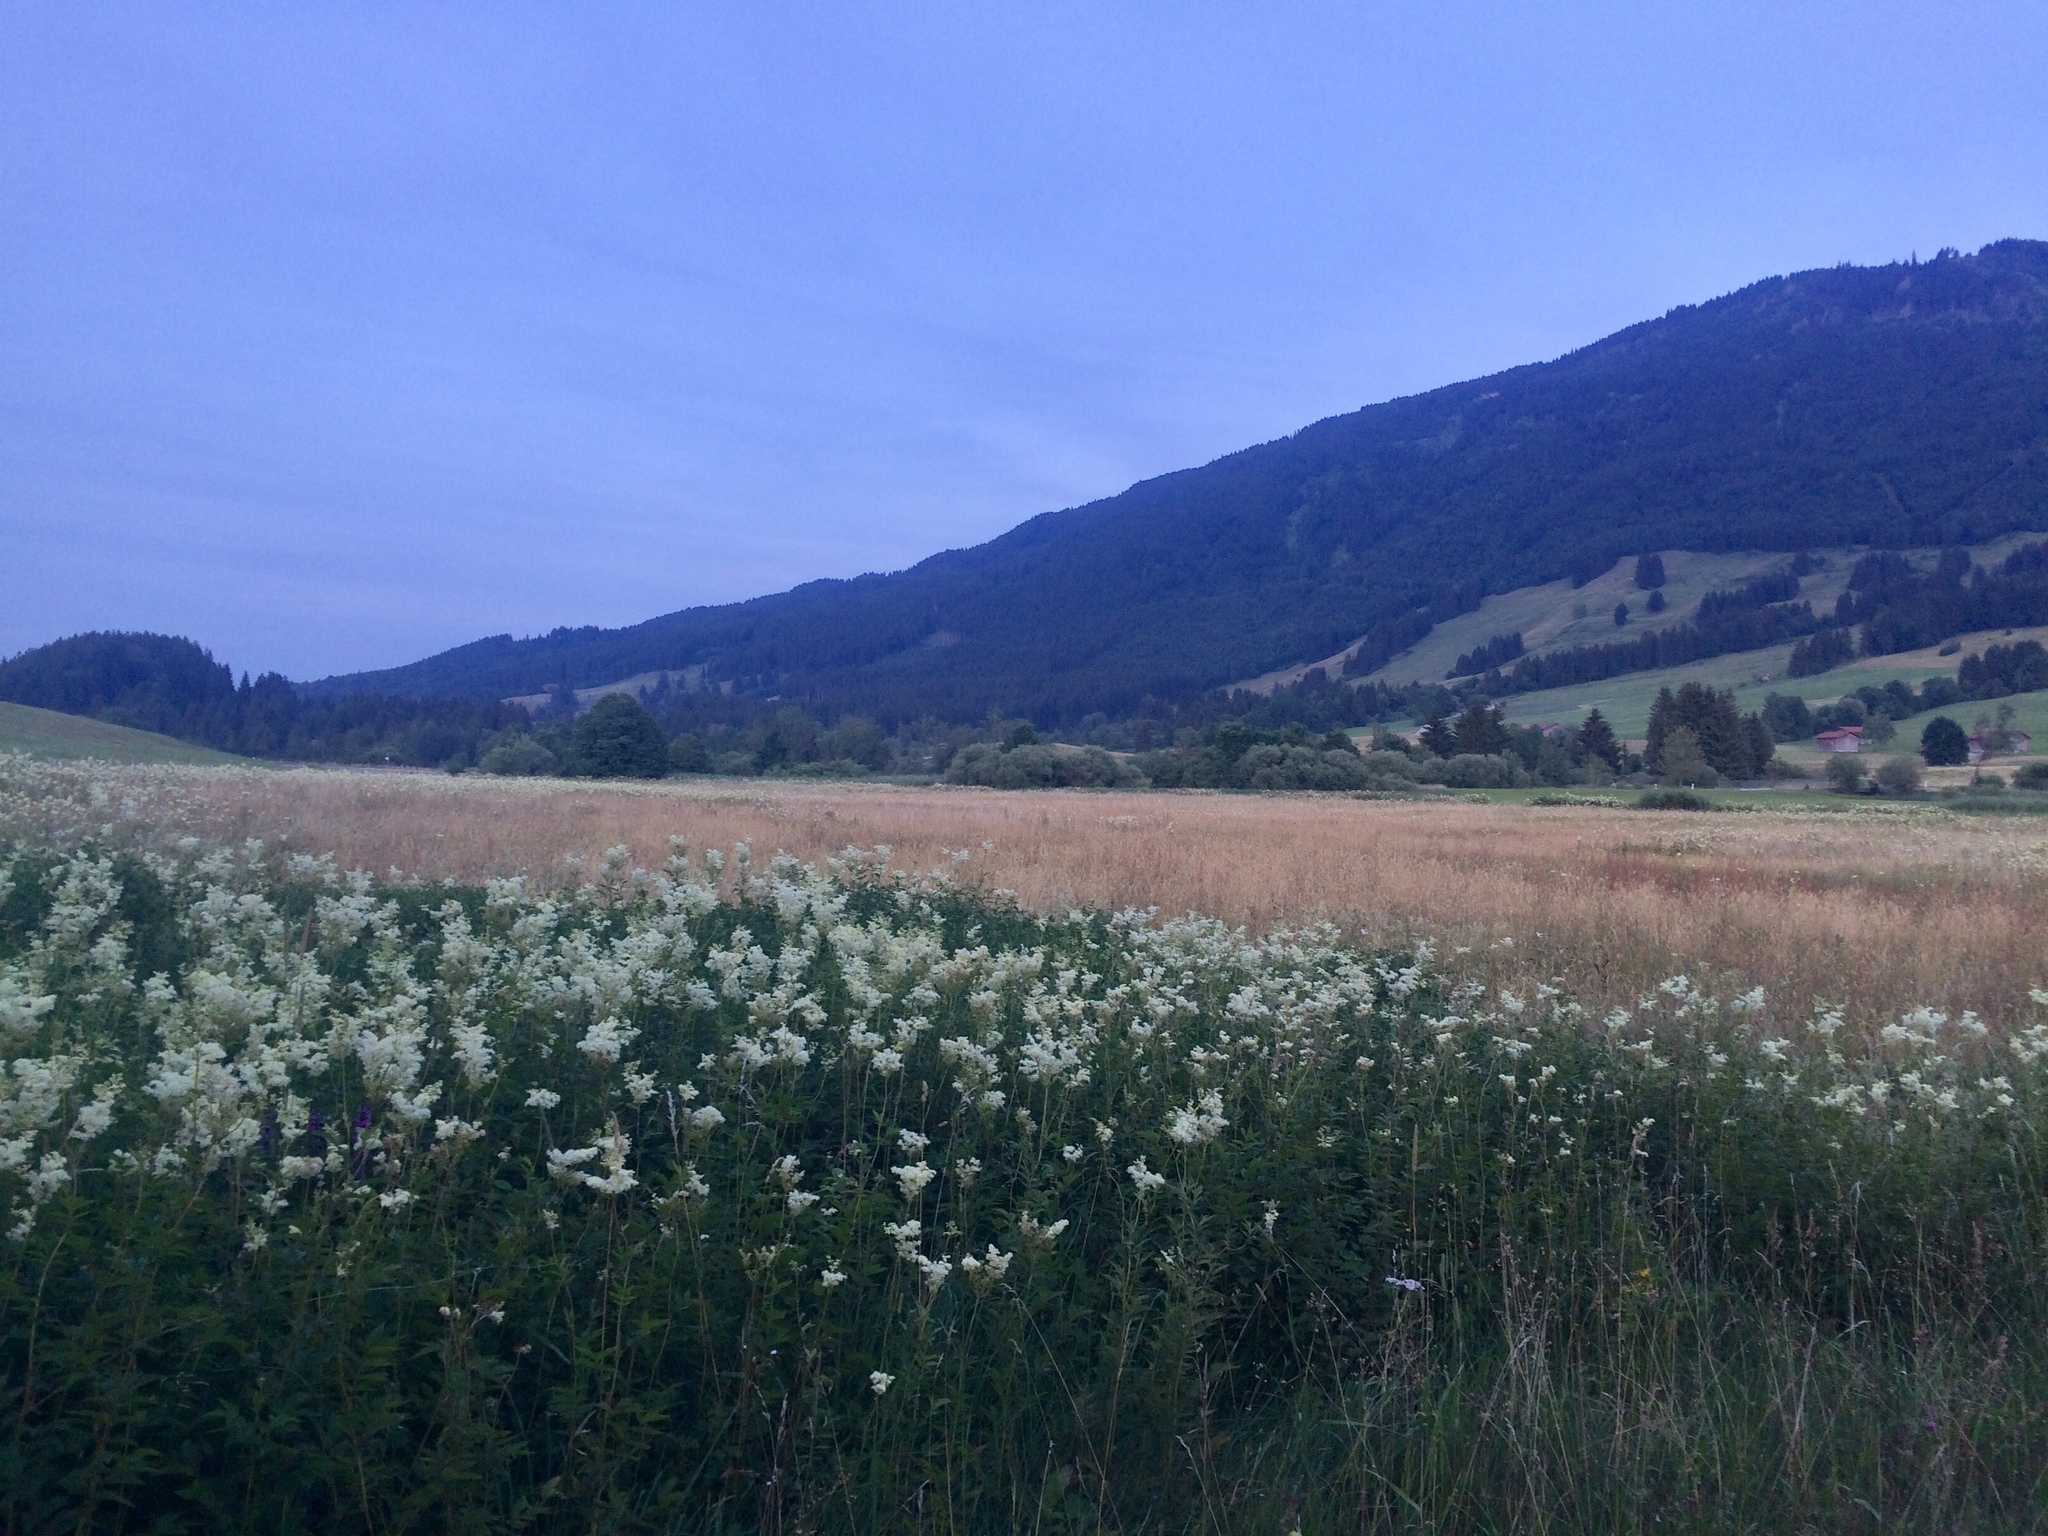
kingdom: Plantae
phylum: Tracheophyta
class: Magnoliopsida
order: Rosales
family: Rosaceae
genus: Filipendula
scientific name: Filipendula ulmaria
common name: Meadowsweet
